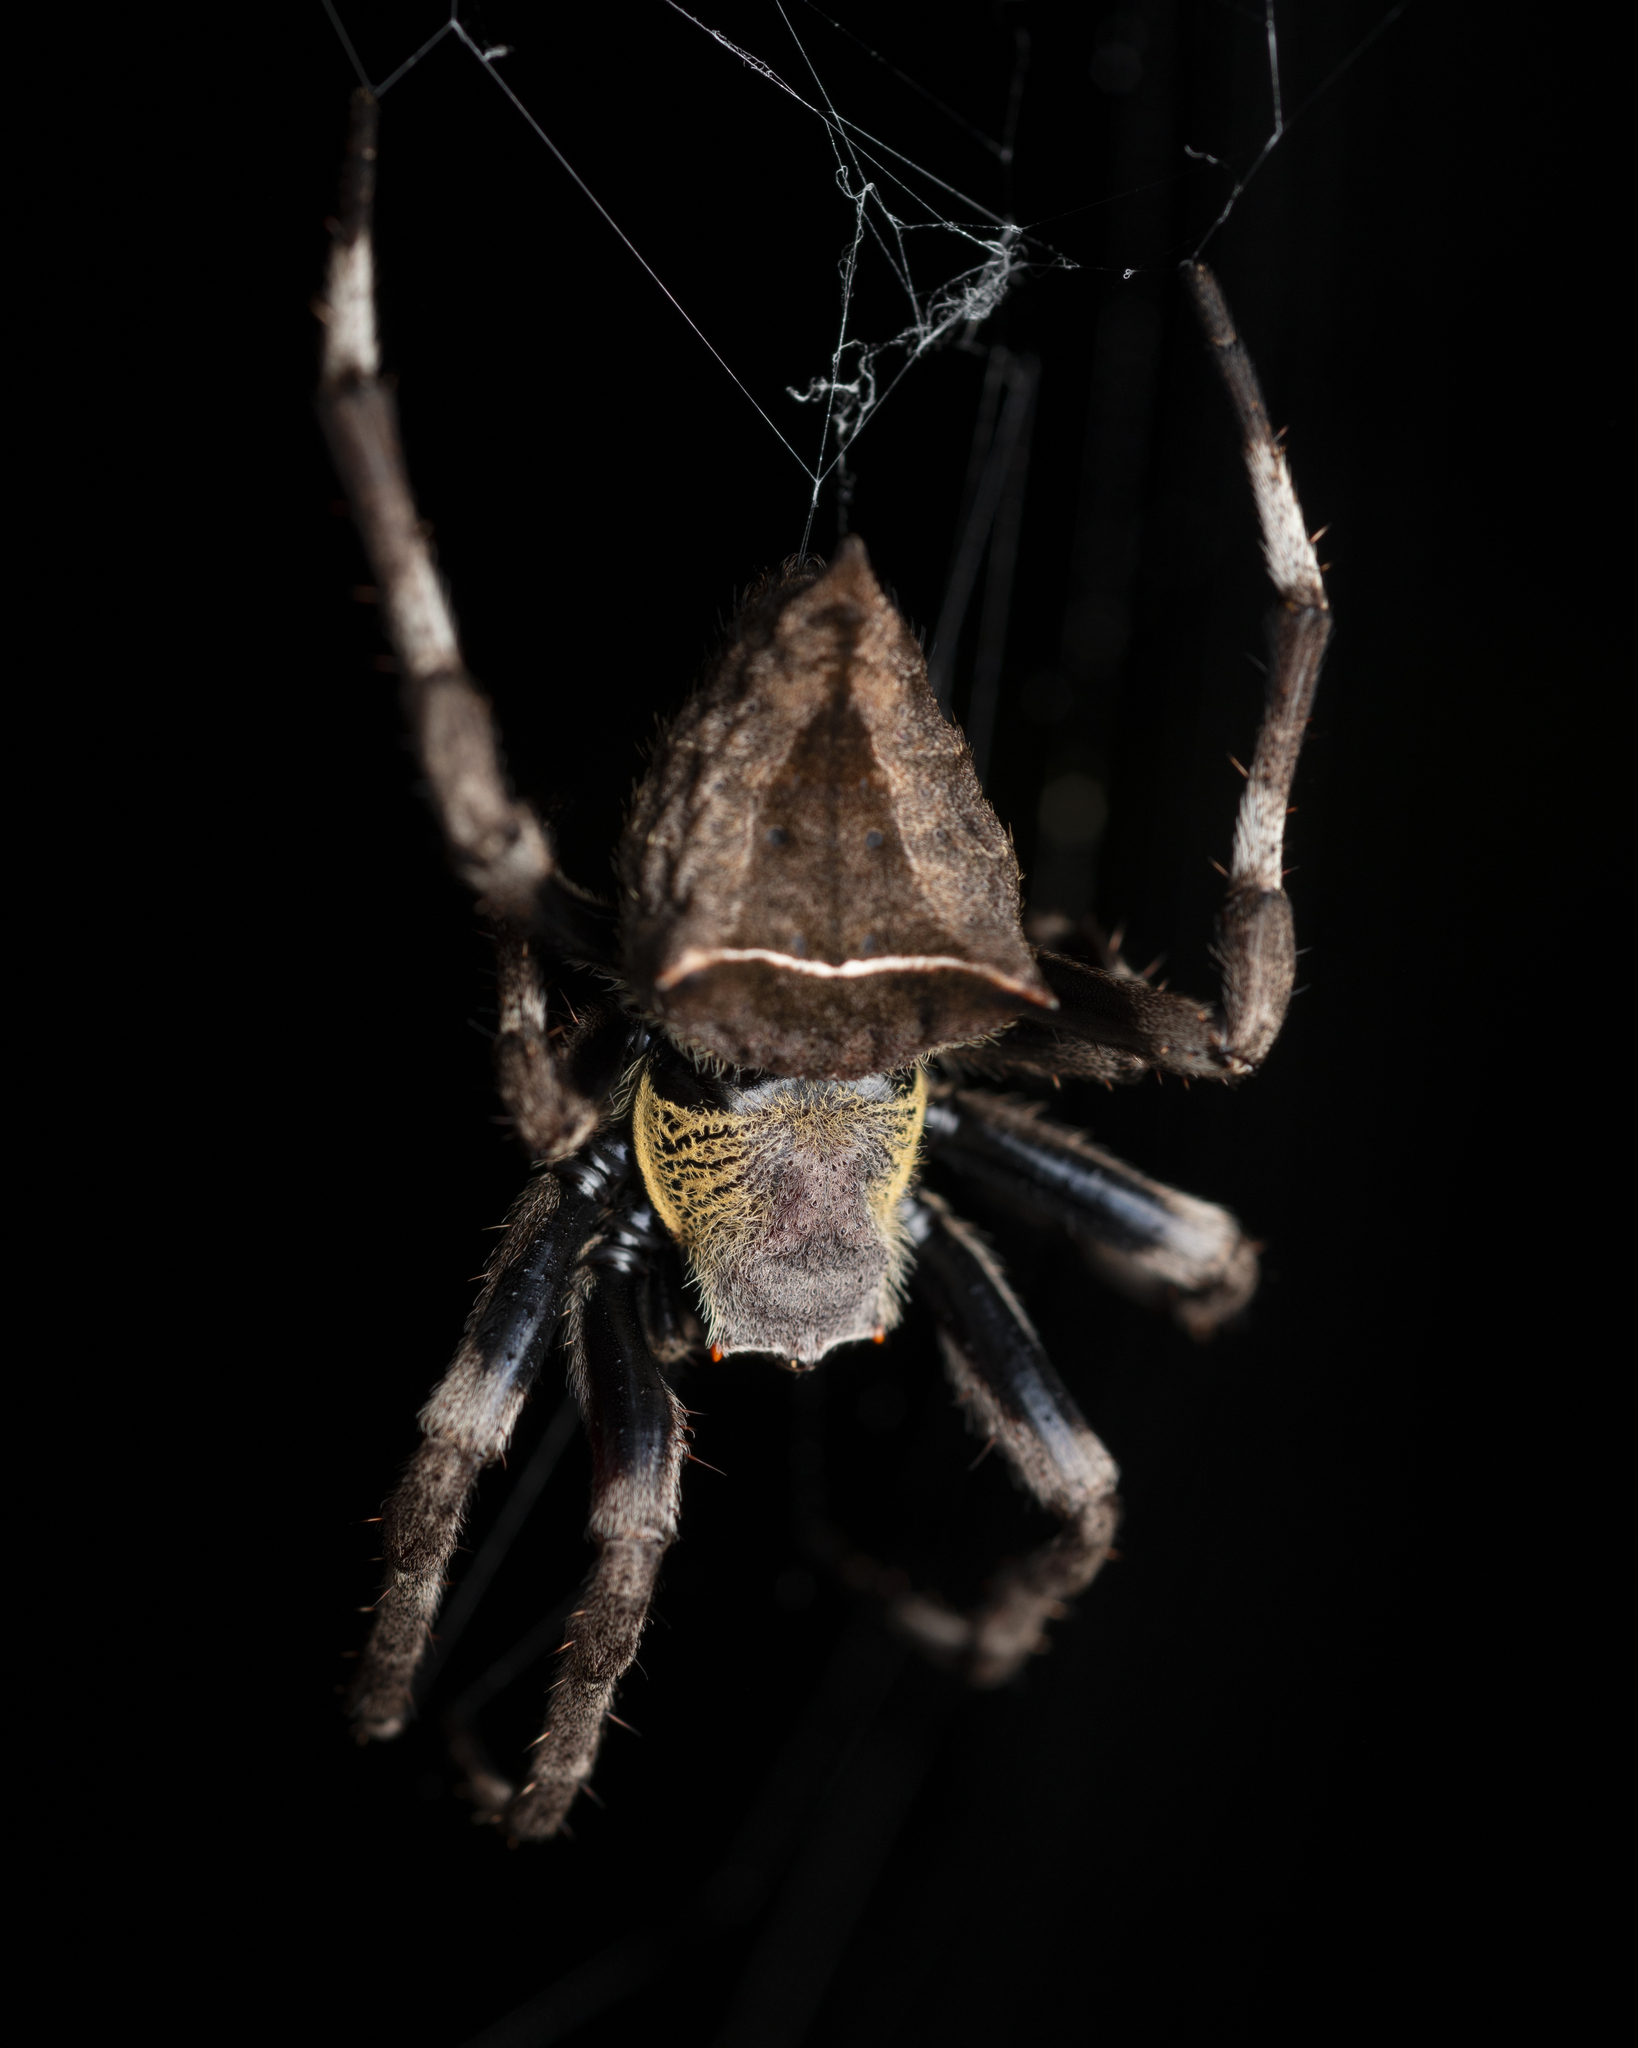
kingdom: Animalia
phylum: Arthropoda
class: Arachnida
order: Araneae
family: Araneidae
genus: Parawixia
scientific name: Parawixia dehaani
